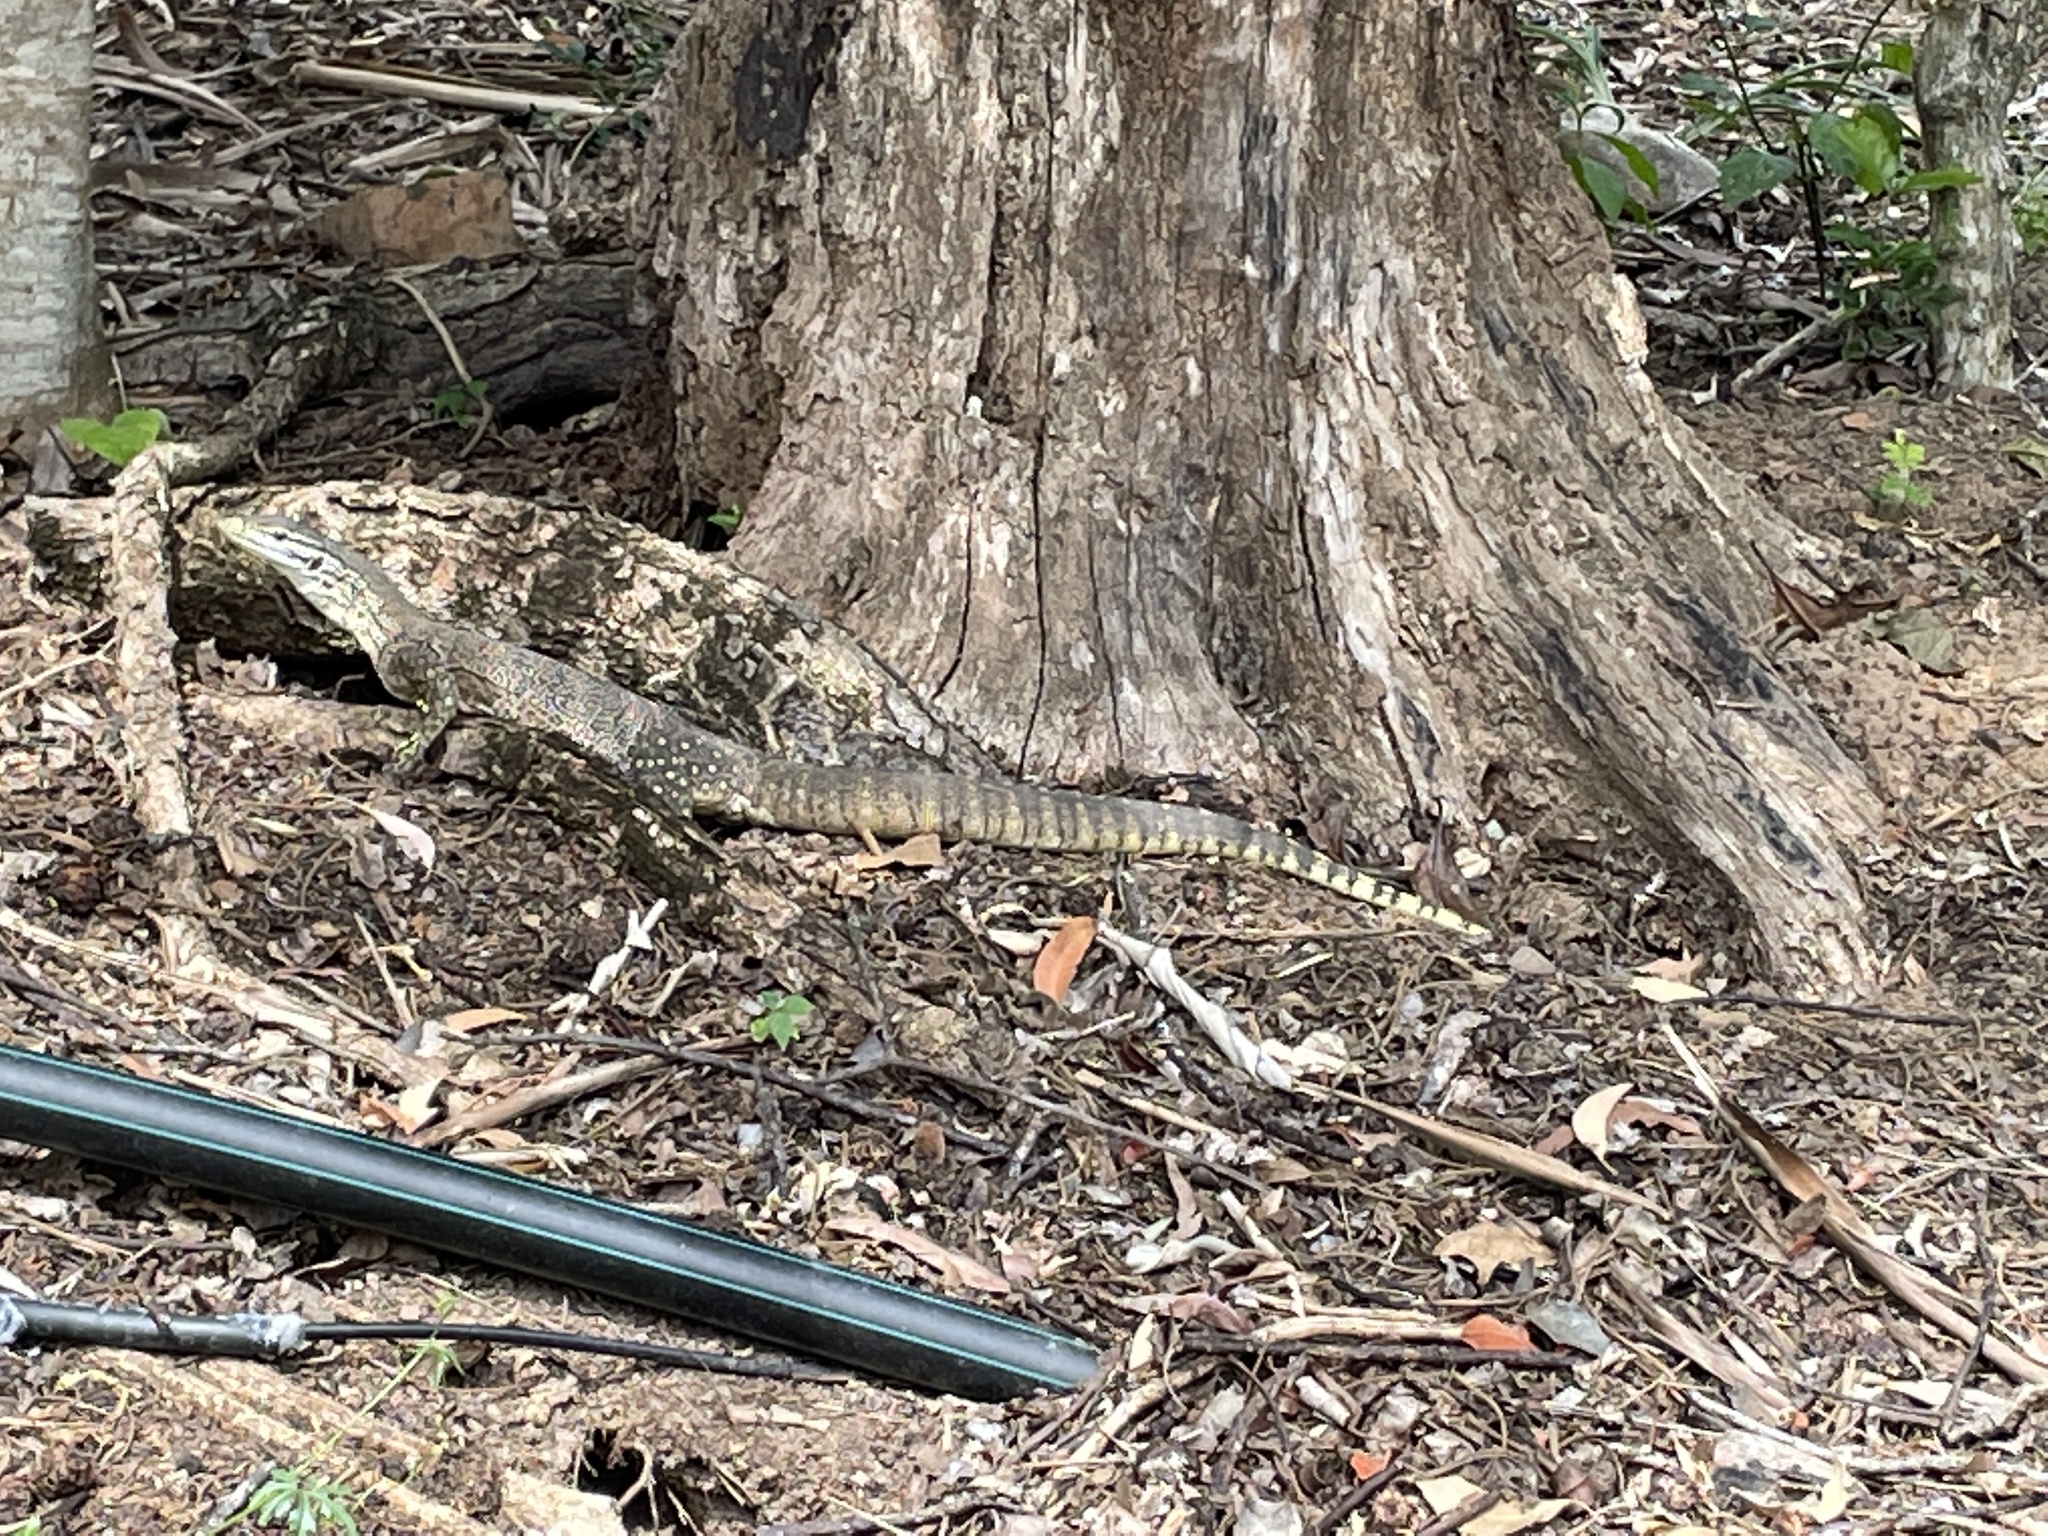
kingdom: Animalia
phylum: Chordata
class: Squamata
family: Varanidae
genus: Varanus
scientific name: Varanus panoptes
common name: Yellow-spotted monitor
